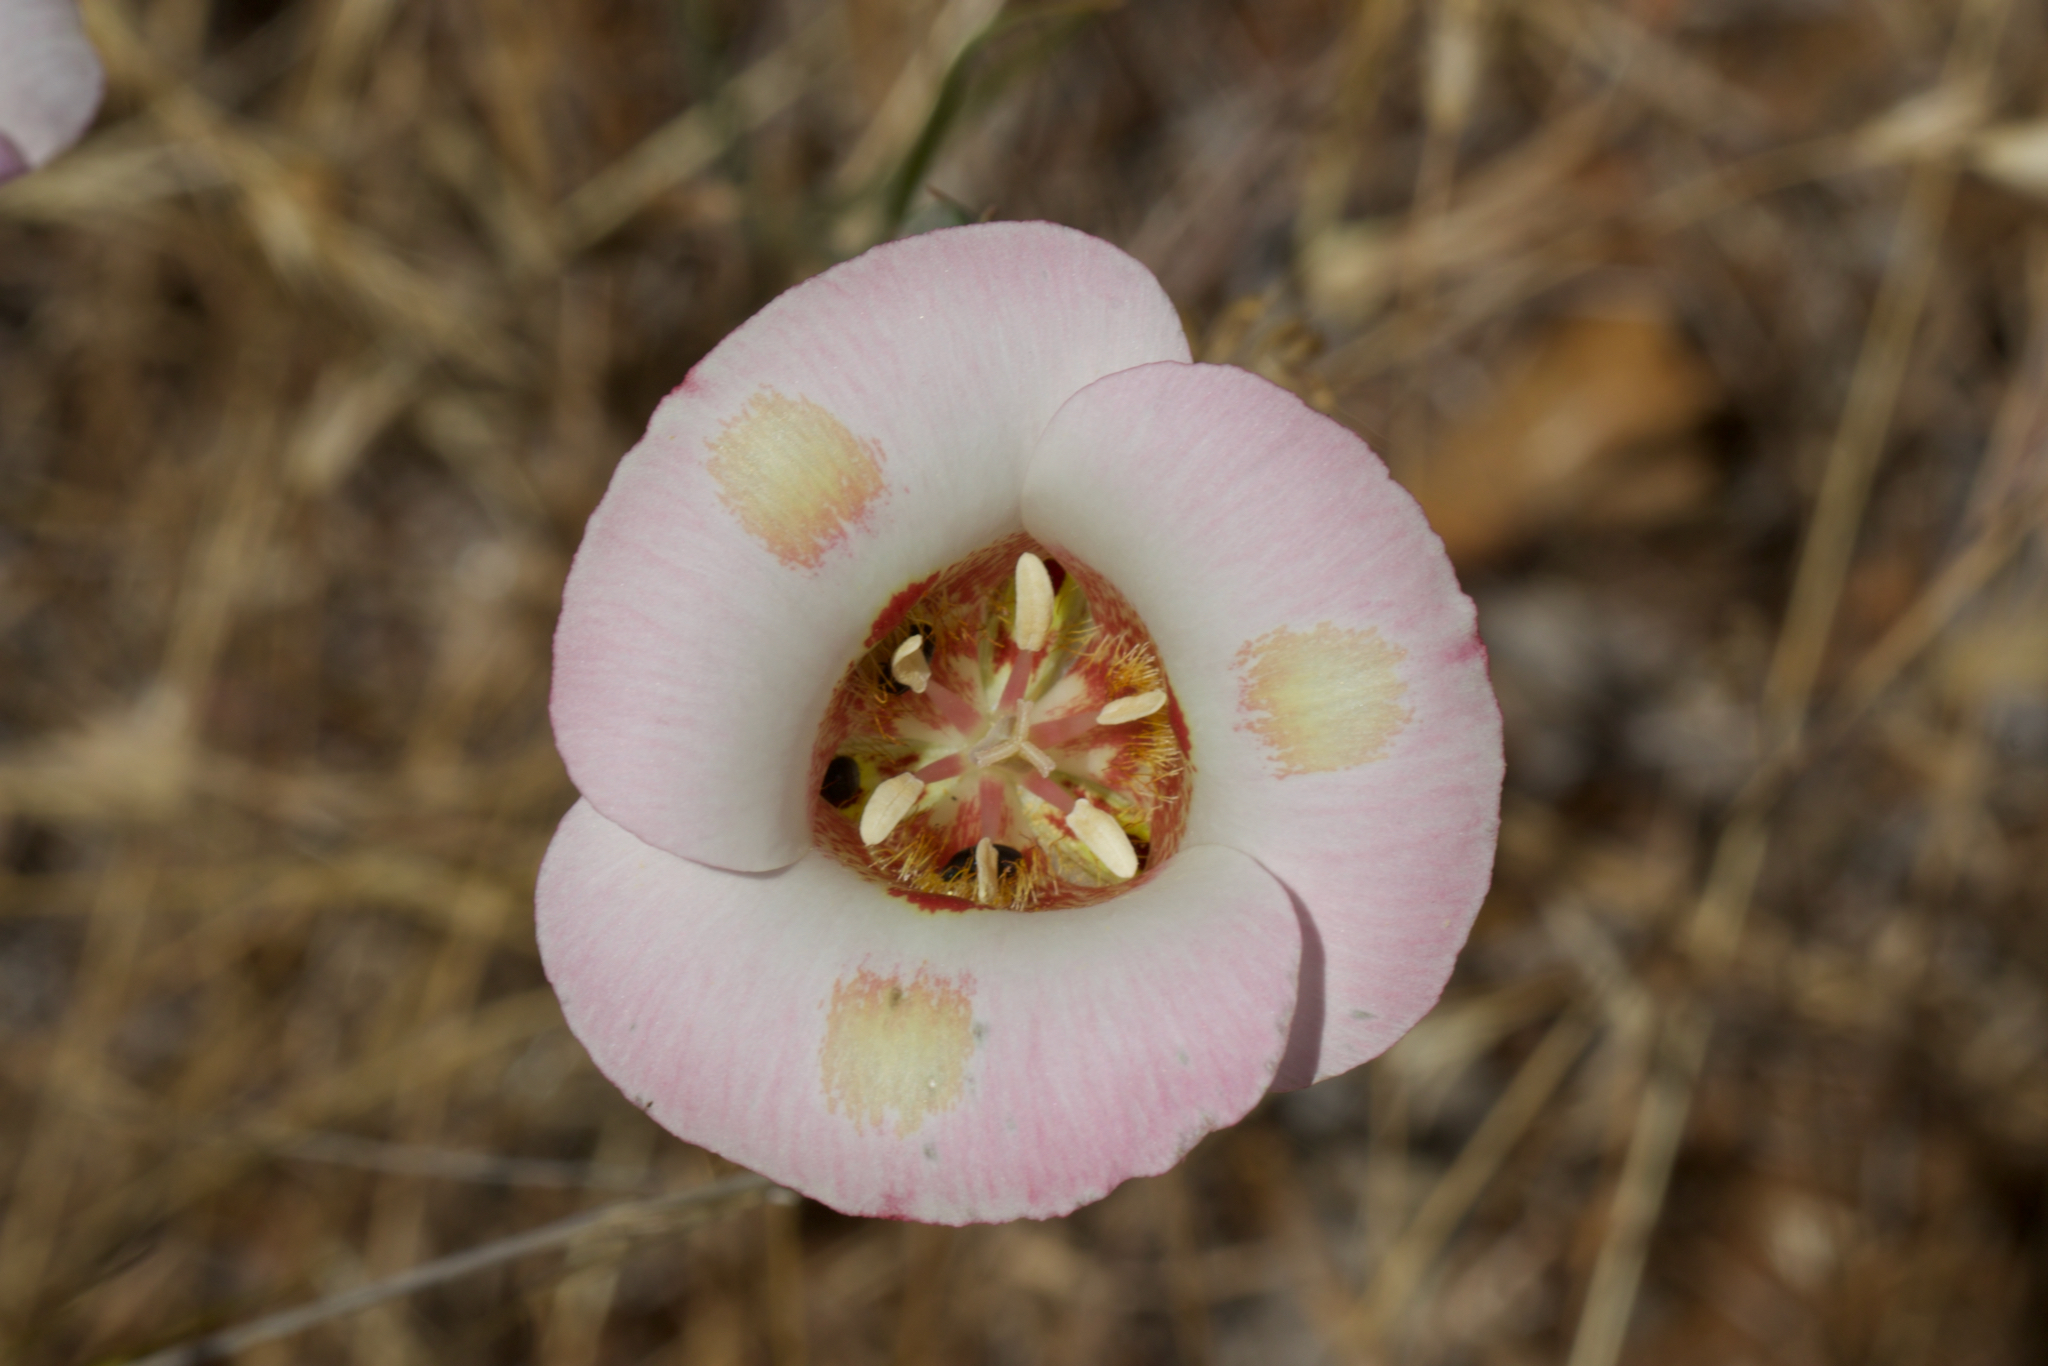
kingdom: Plantae
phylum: Tracheophyta
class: Liliopsida
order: Liliales
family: Liliaceae
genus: Calochortus
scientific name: Calochortus venustus
